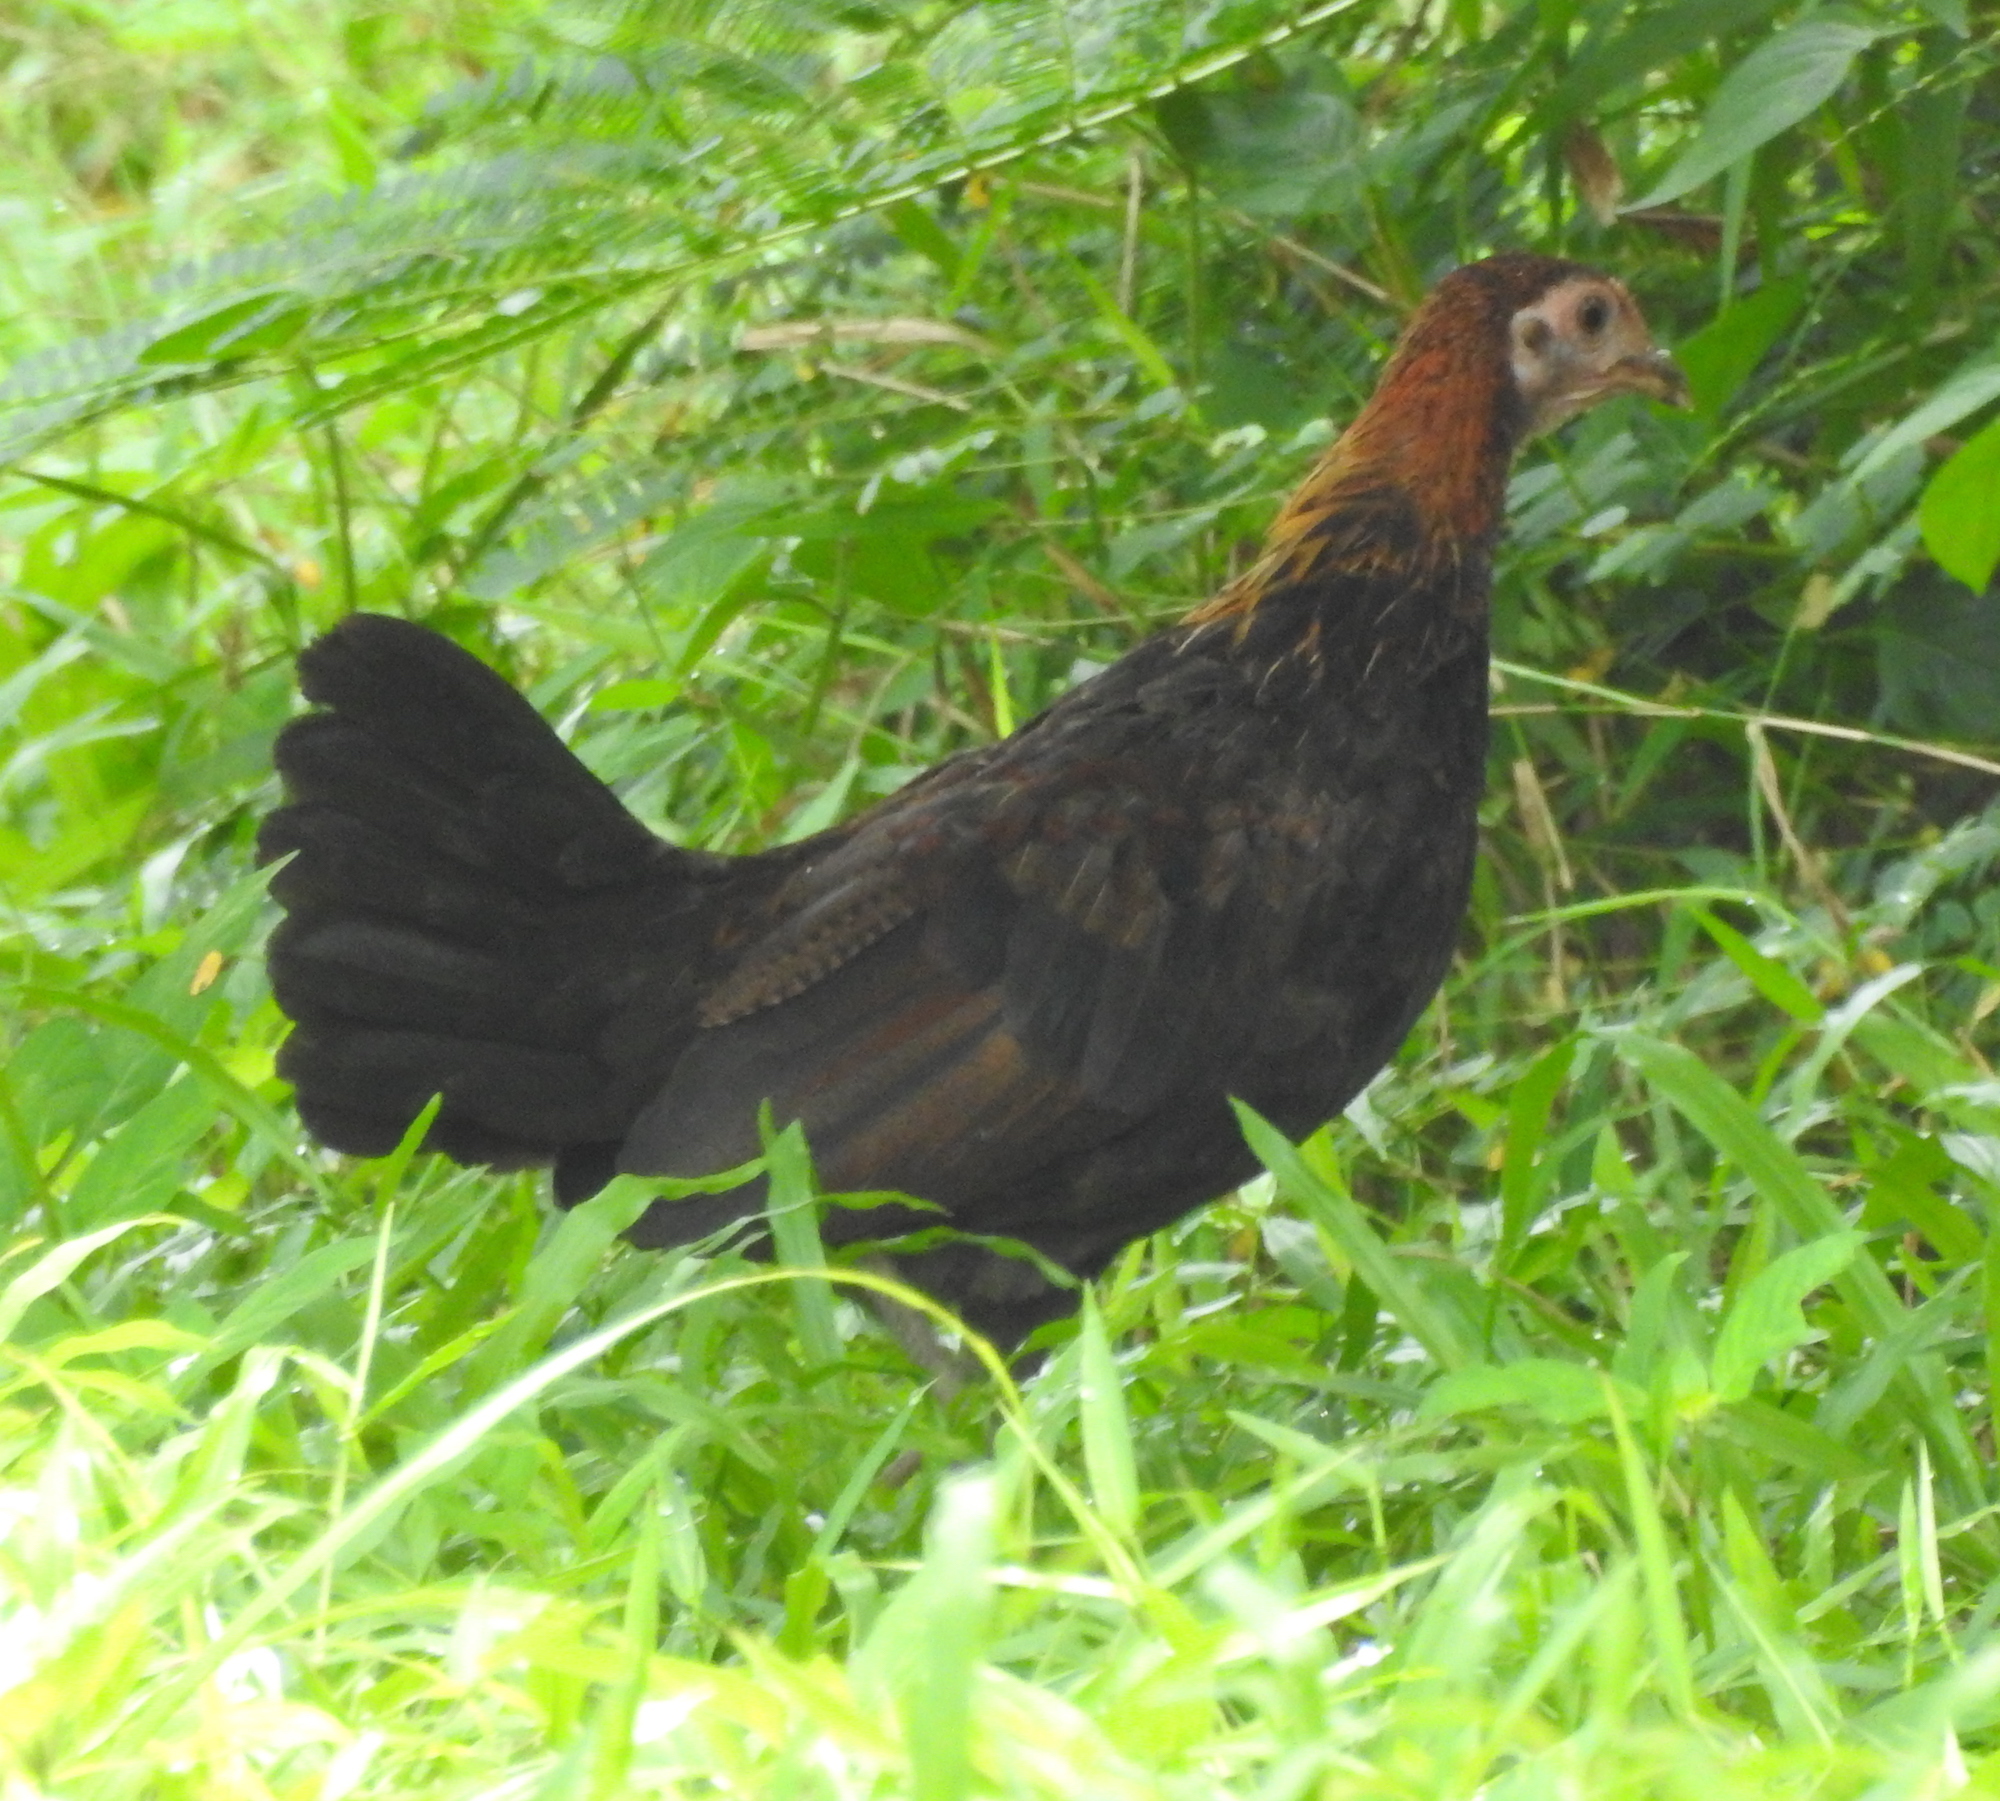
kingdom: Animalia
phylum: Chordata
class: Aves
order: Galliformes
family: Phasianidae
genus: Gallus
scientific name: Gallus gallus
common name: Red junglefowl
